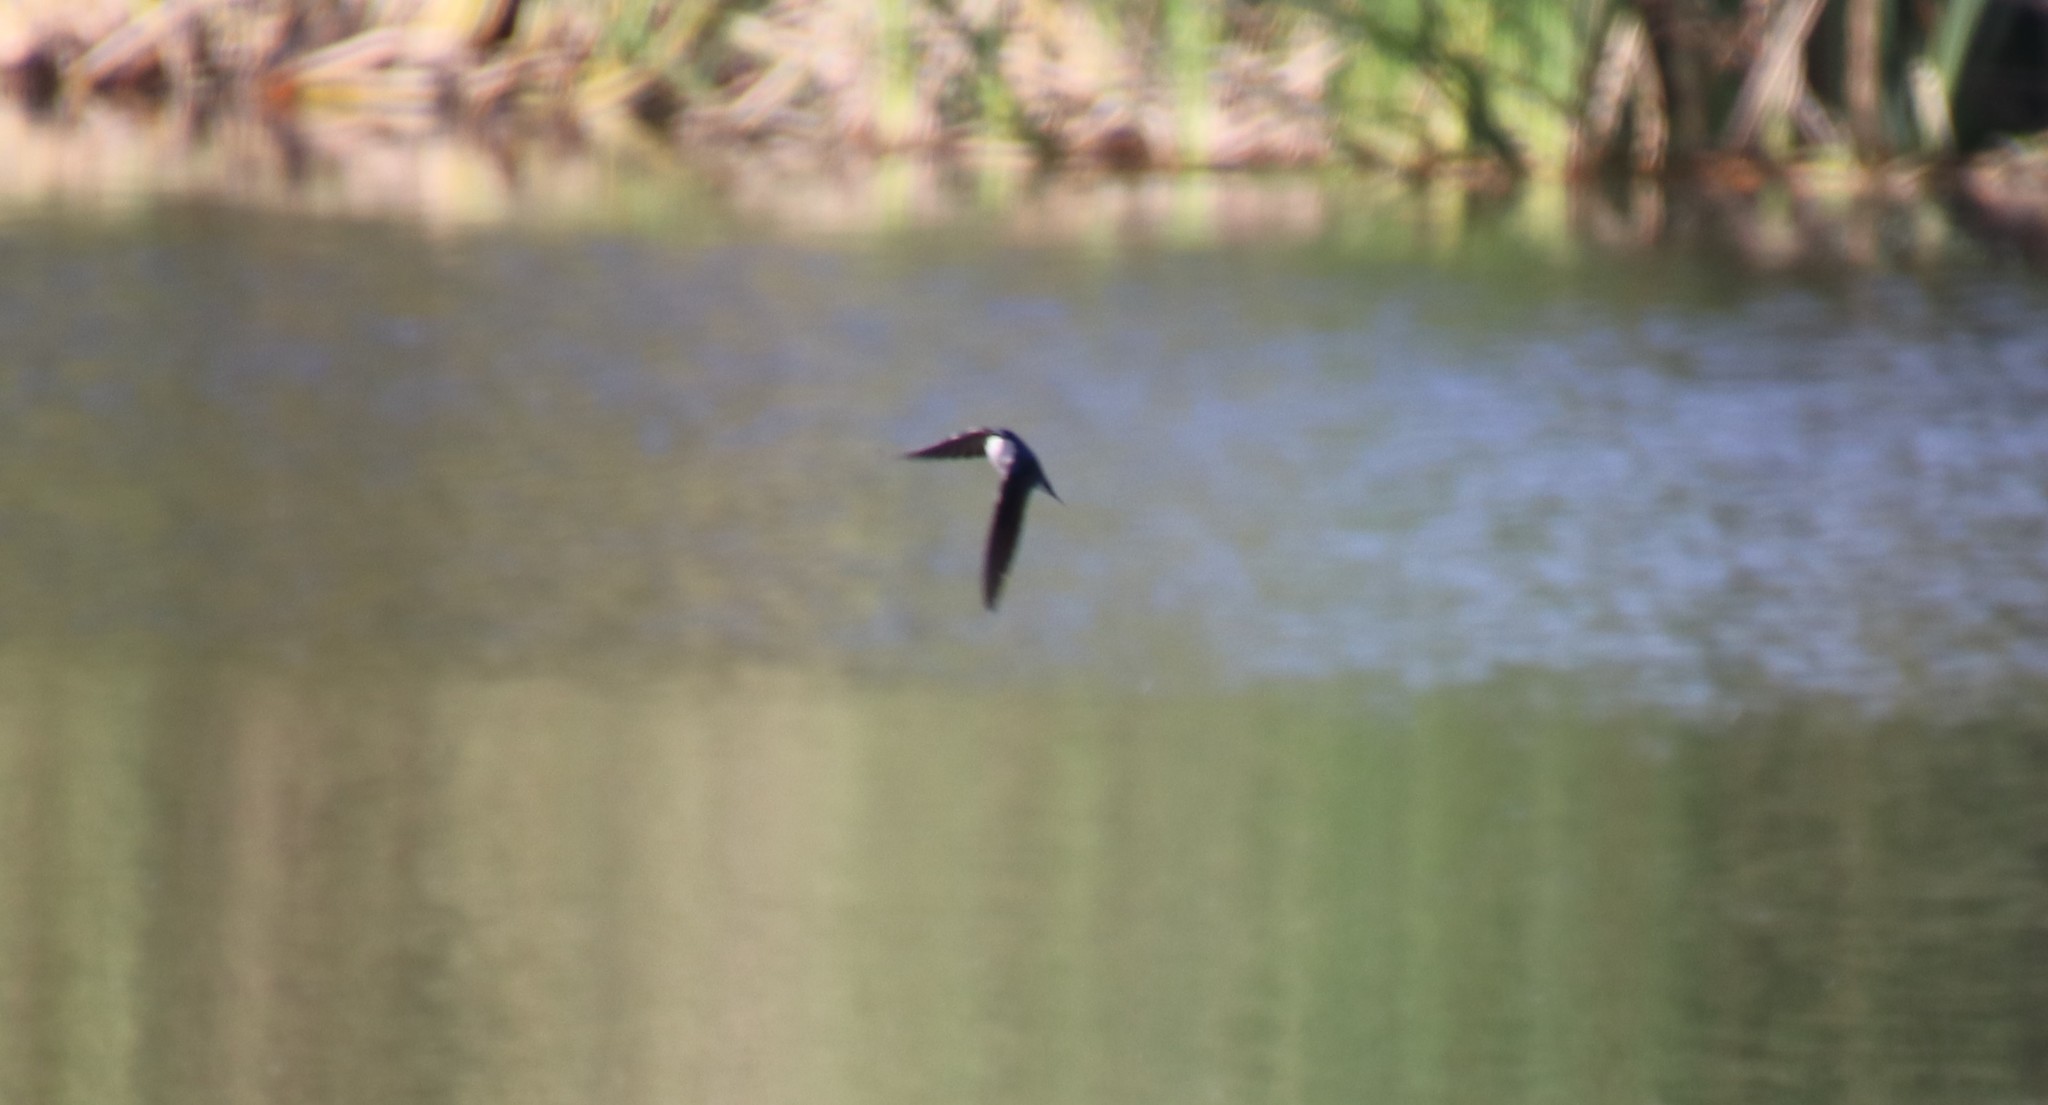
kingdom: Animalia
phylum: Chordata
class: Aves
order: Passeriformes
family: Hirundinidae
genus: Tachycineta
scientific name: Tachycineta bicolor
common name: Tree swallow
